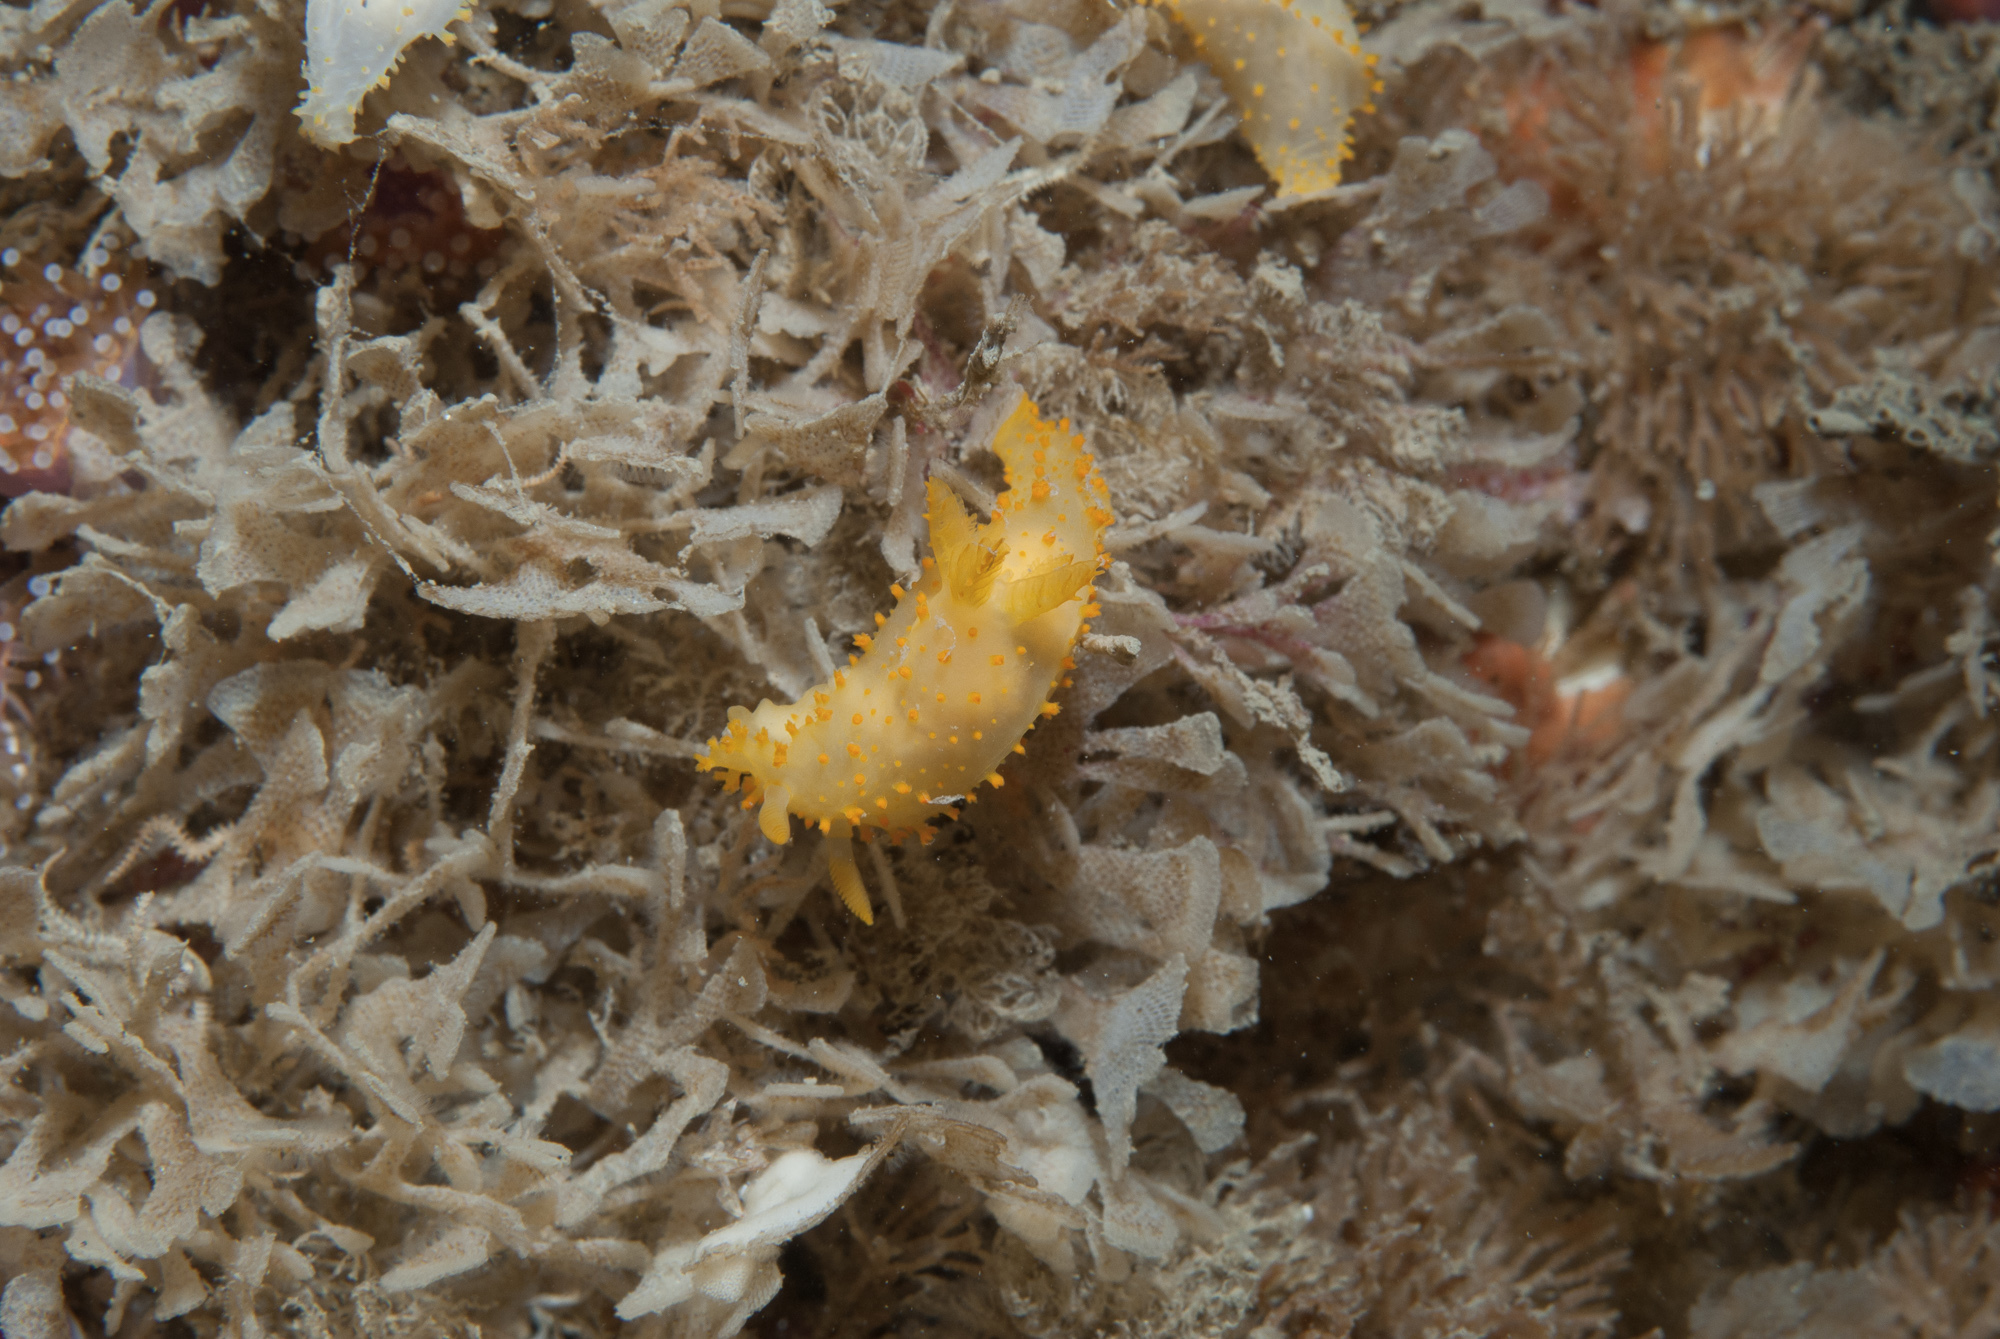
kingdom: Animalia
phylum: Mollusca
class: Gastropoda
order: Nudibranchia
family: Polyceridae
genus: Crimora
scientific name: Crimora papillata
